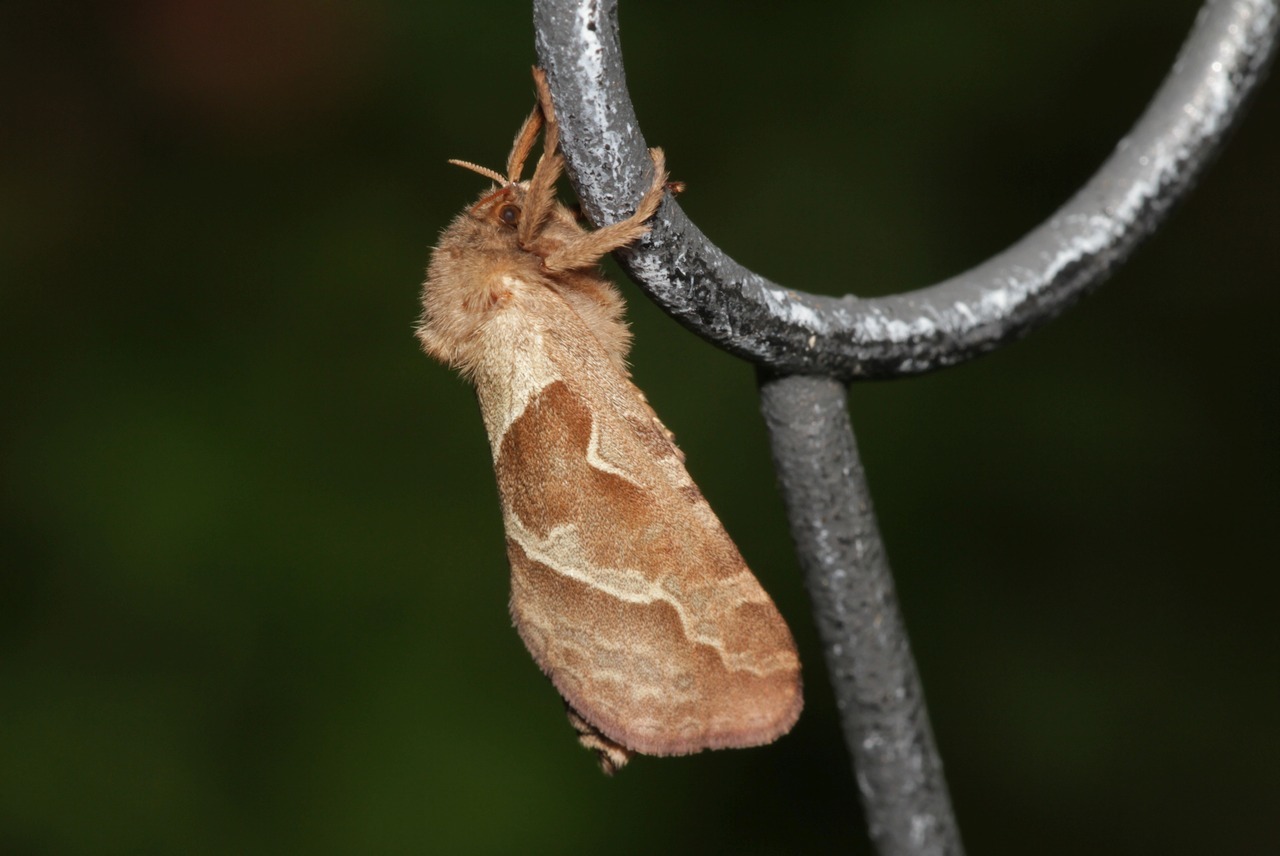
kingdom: Animalia
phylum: Arthropoda
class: Insecta
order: Lepidoptera
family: Hepialidae
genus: Triodia
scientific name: Triodia sylvina
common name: Orange swift
